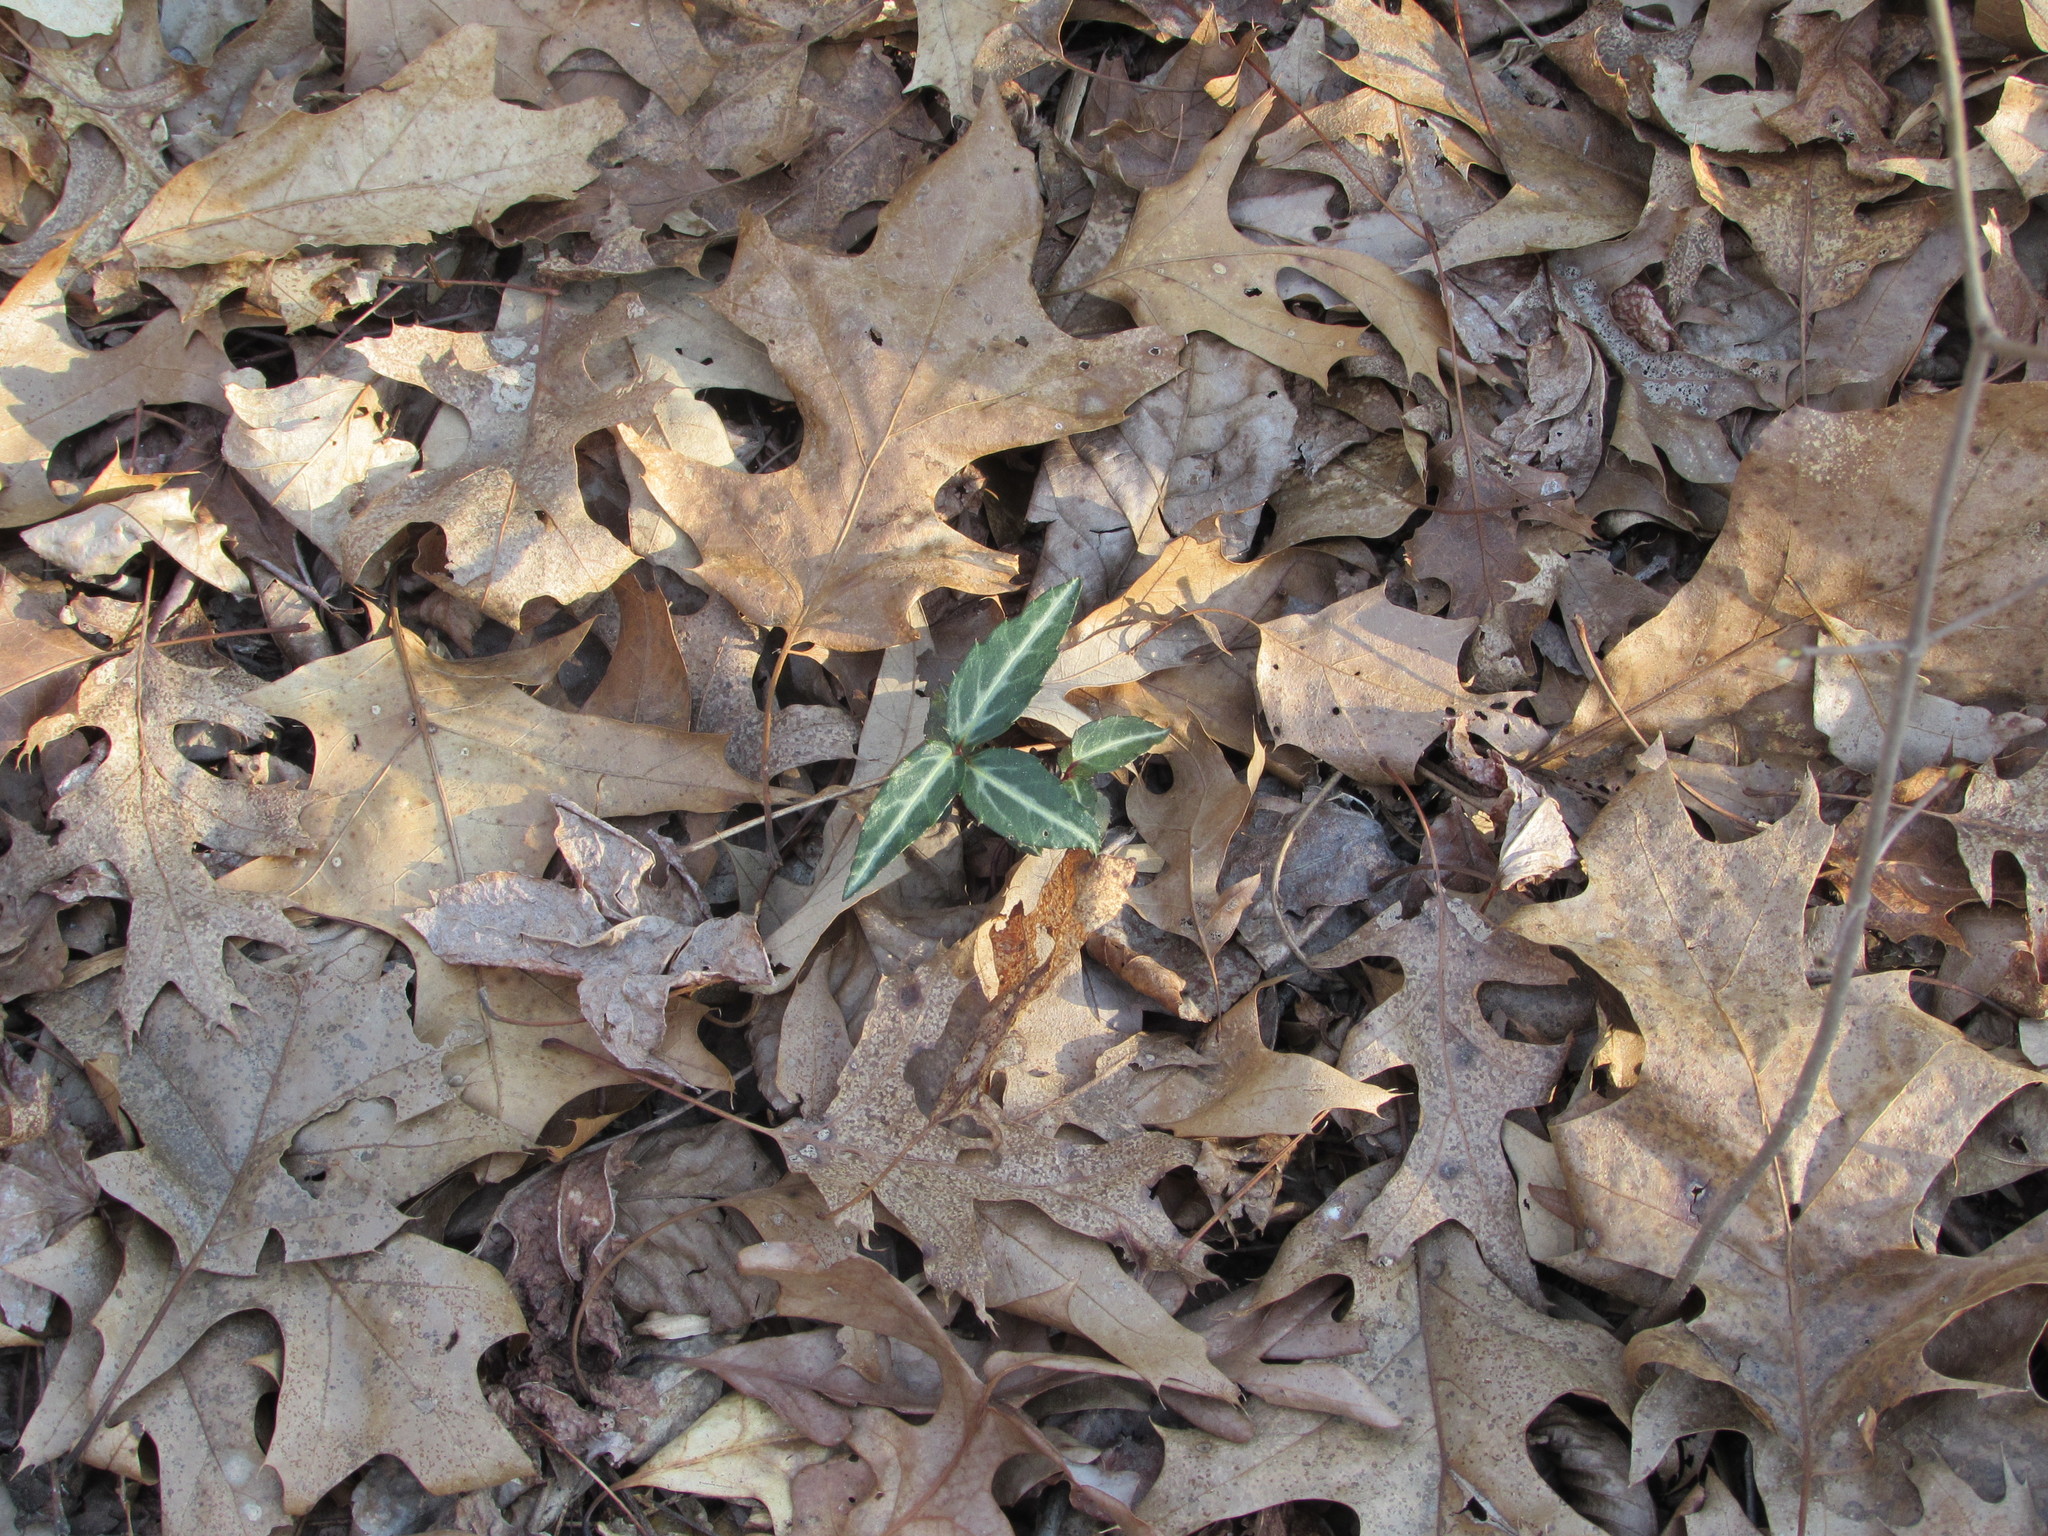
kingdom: Plantae
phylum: Tracheophyta
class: Magnoliopsida
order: Ericales
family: Ericaceae
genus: Chimaphila
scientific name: Chimaphila maculata
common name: Spotted pipsissewa
